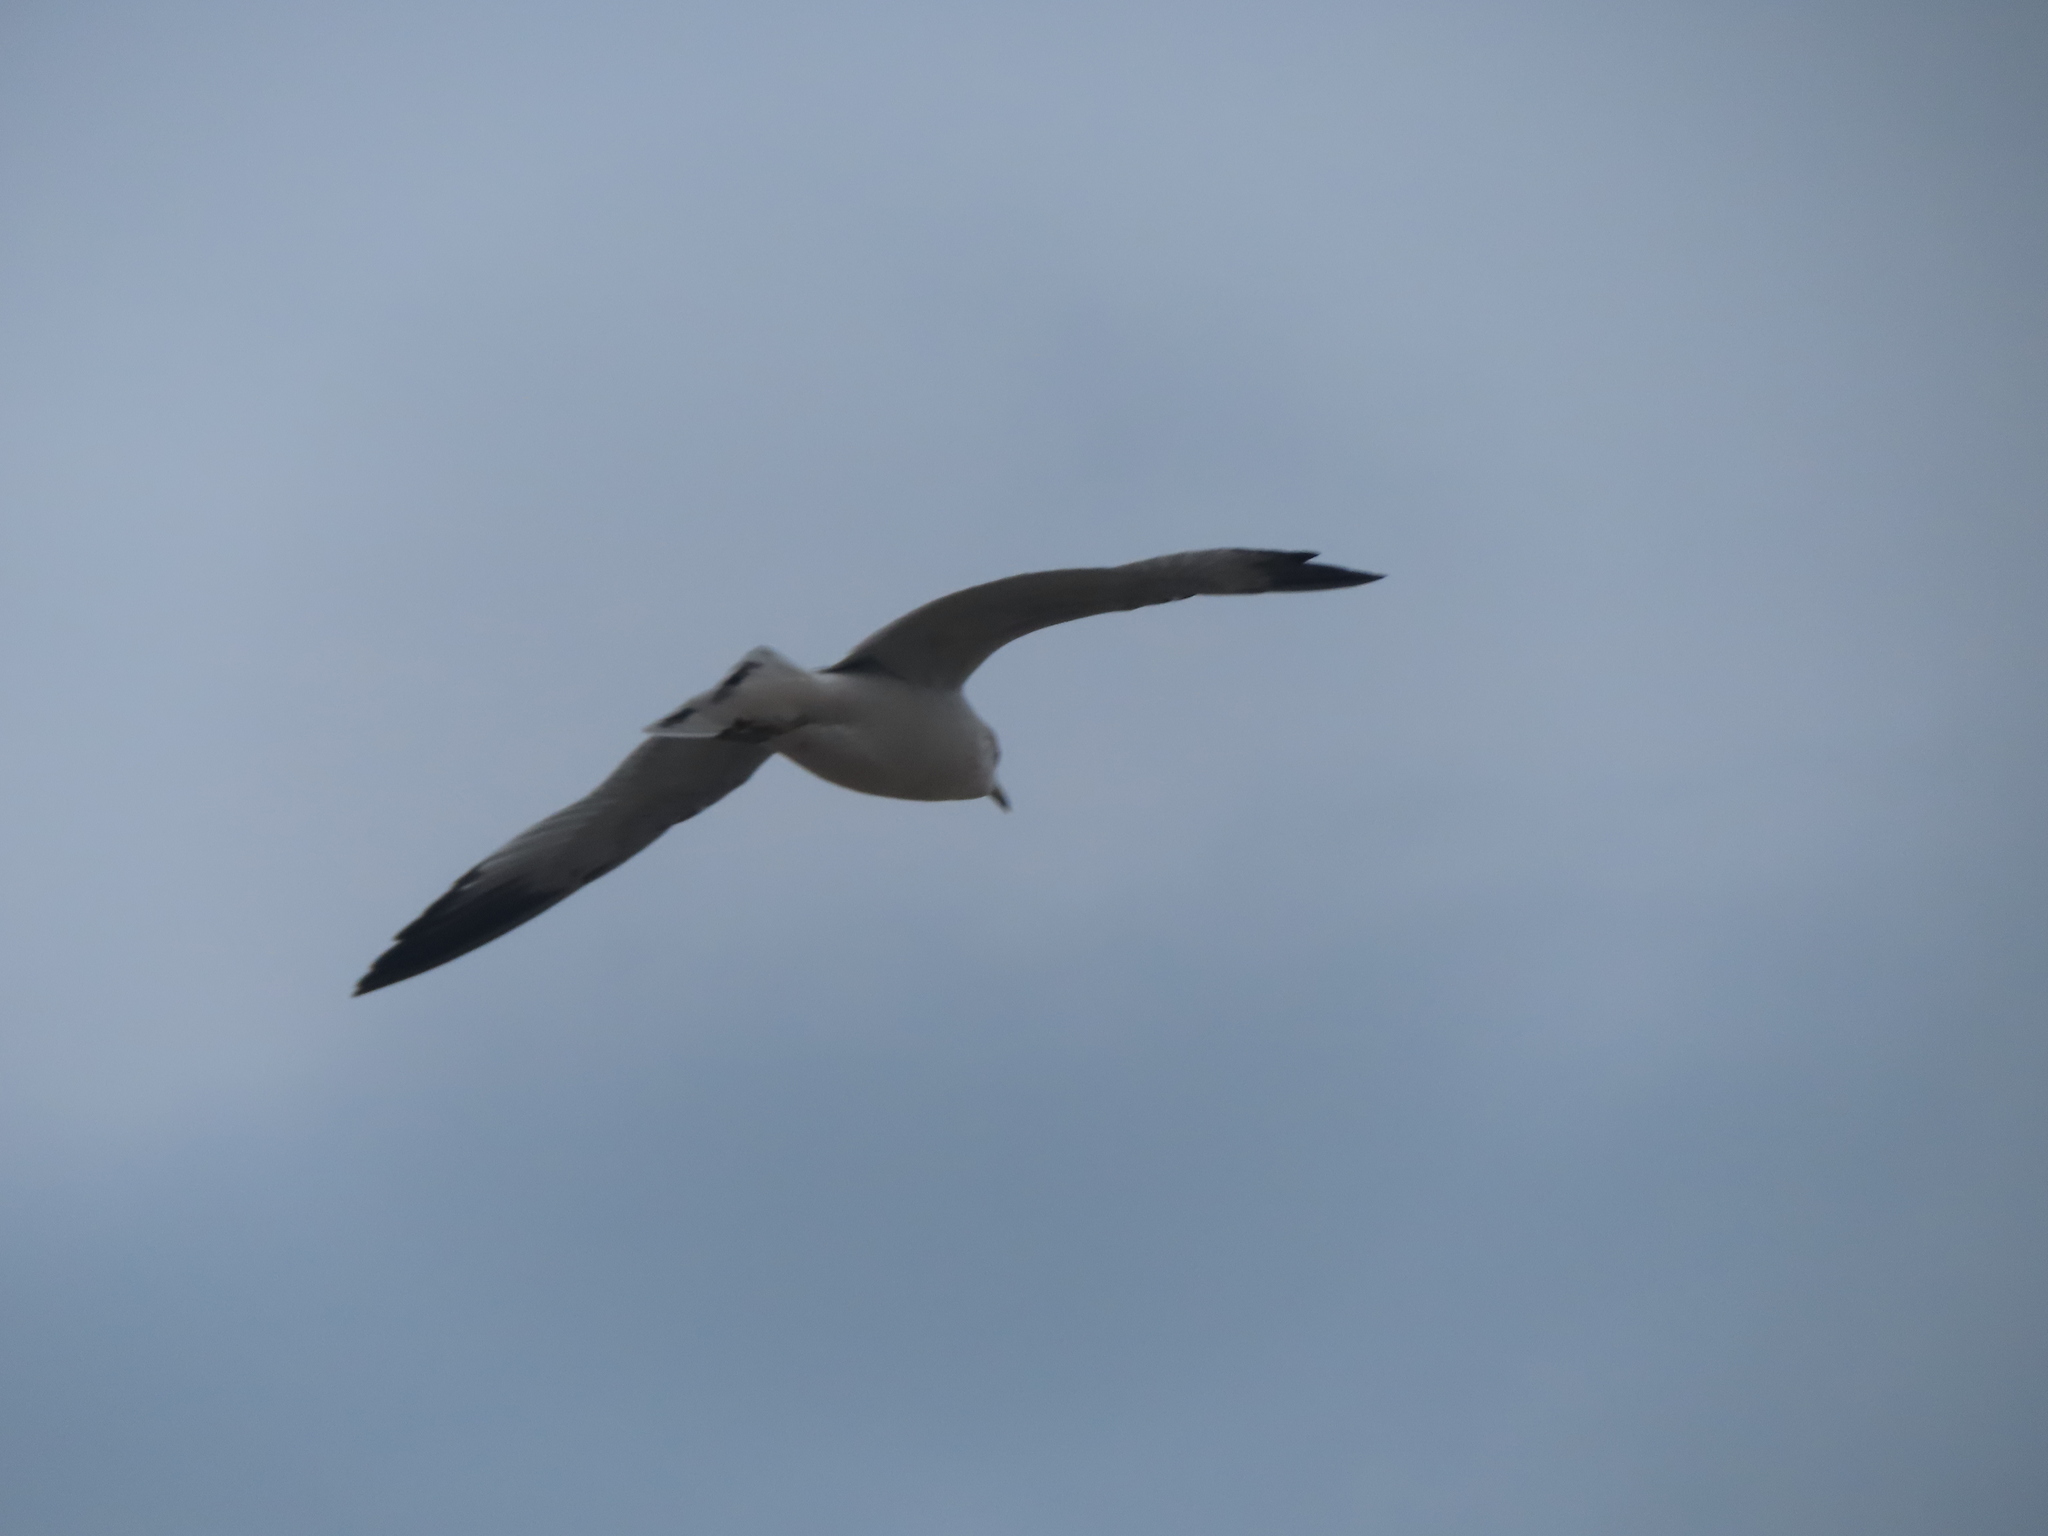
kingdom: Animalia
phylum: Chordata
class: Aves
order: Charadriiformes
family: Laridae
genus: Larus
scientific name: Larus delawarensis
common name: Ring-billed gull
